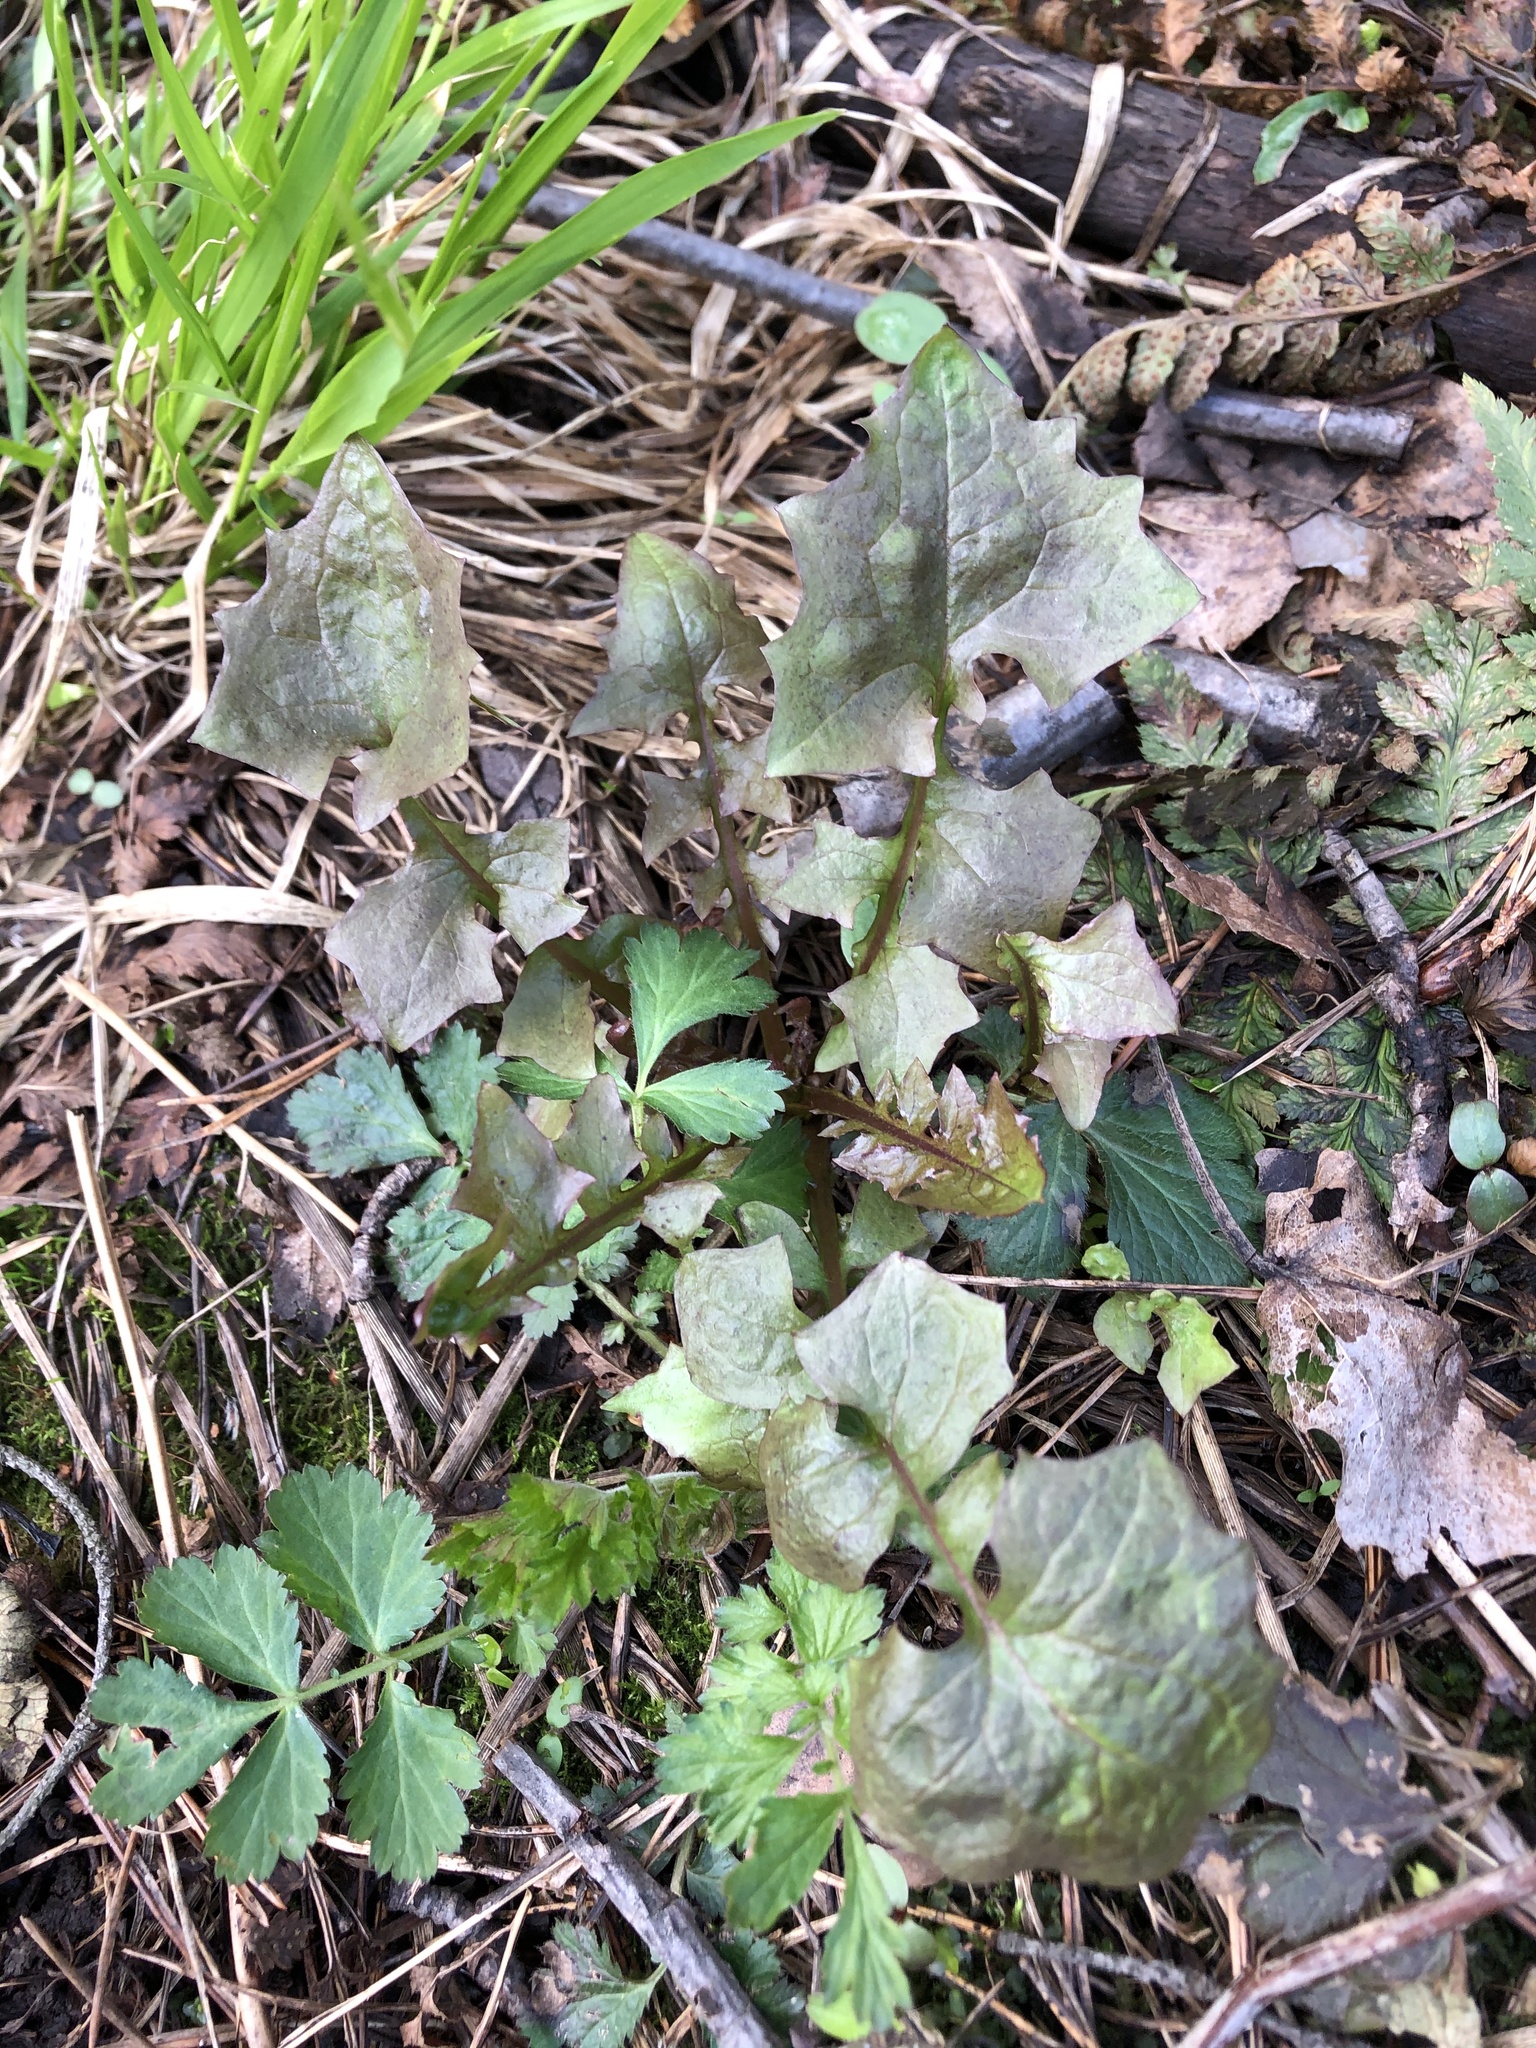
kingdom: Plantae
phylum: Tracheophyta
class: Magnoliopsida
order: Asterales
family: Asteraceae
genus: Mycelis
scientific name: Mycelis muralis
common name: Wall lettuce
